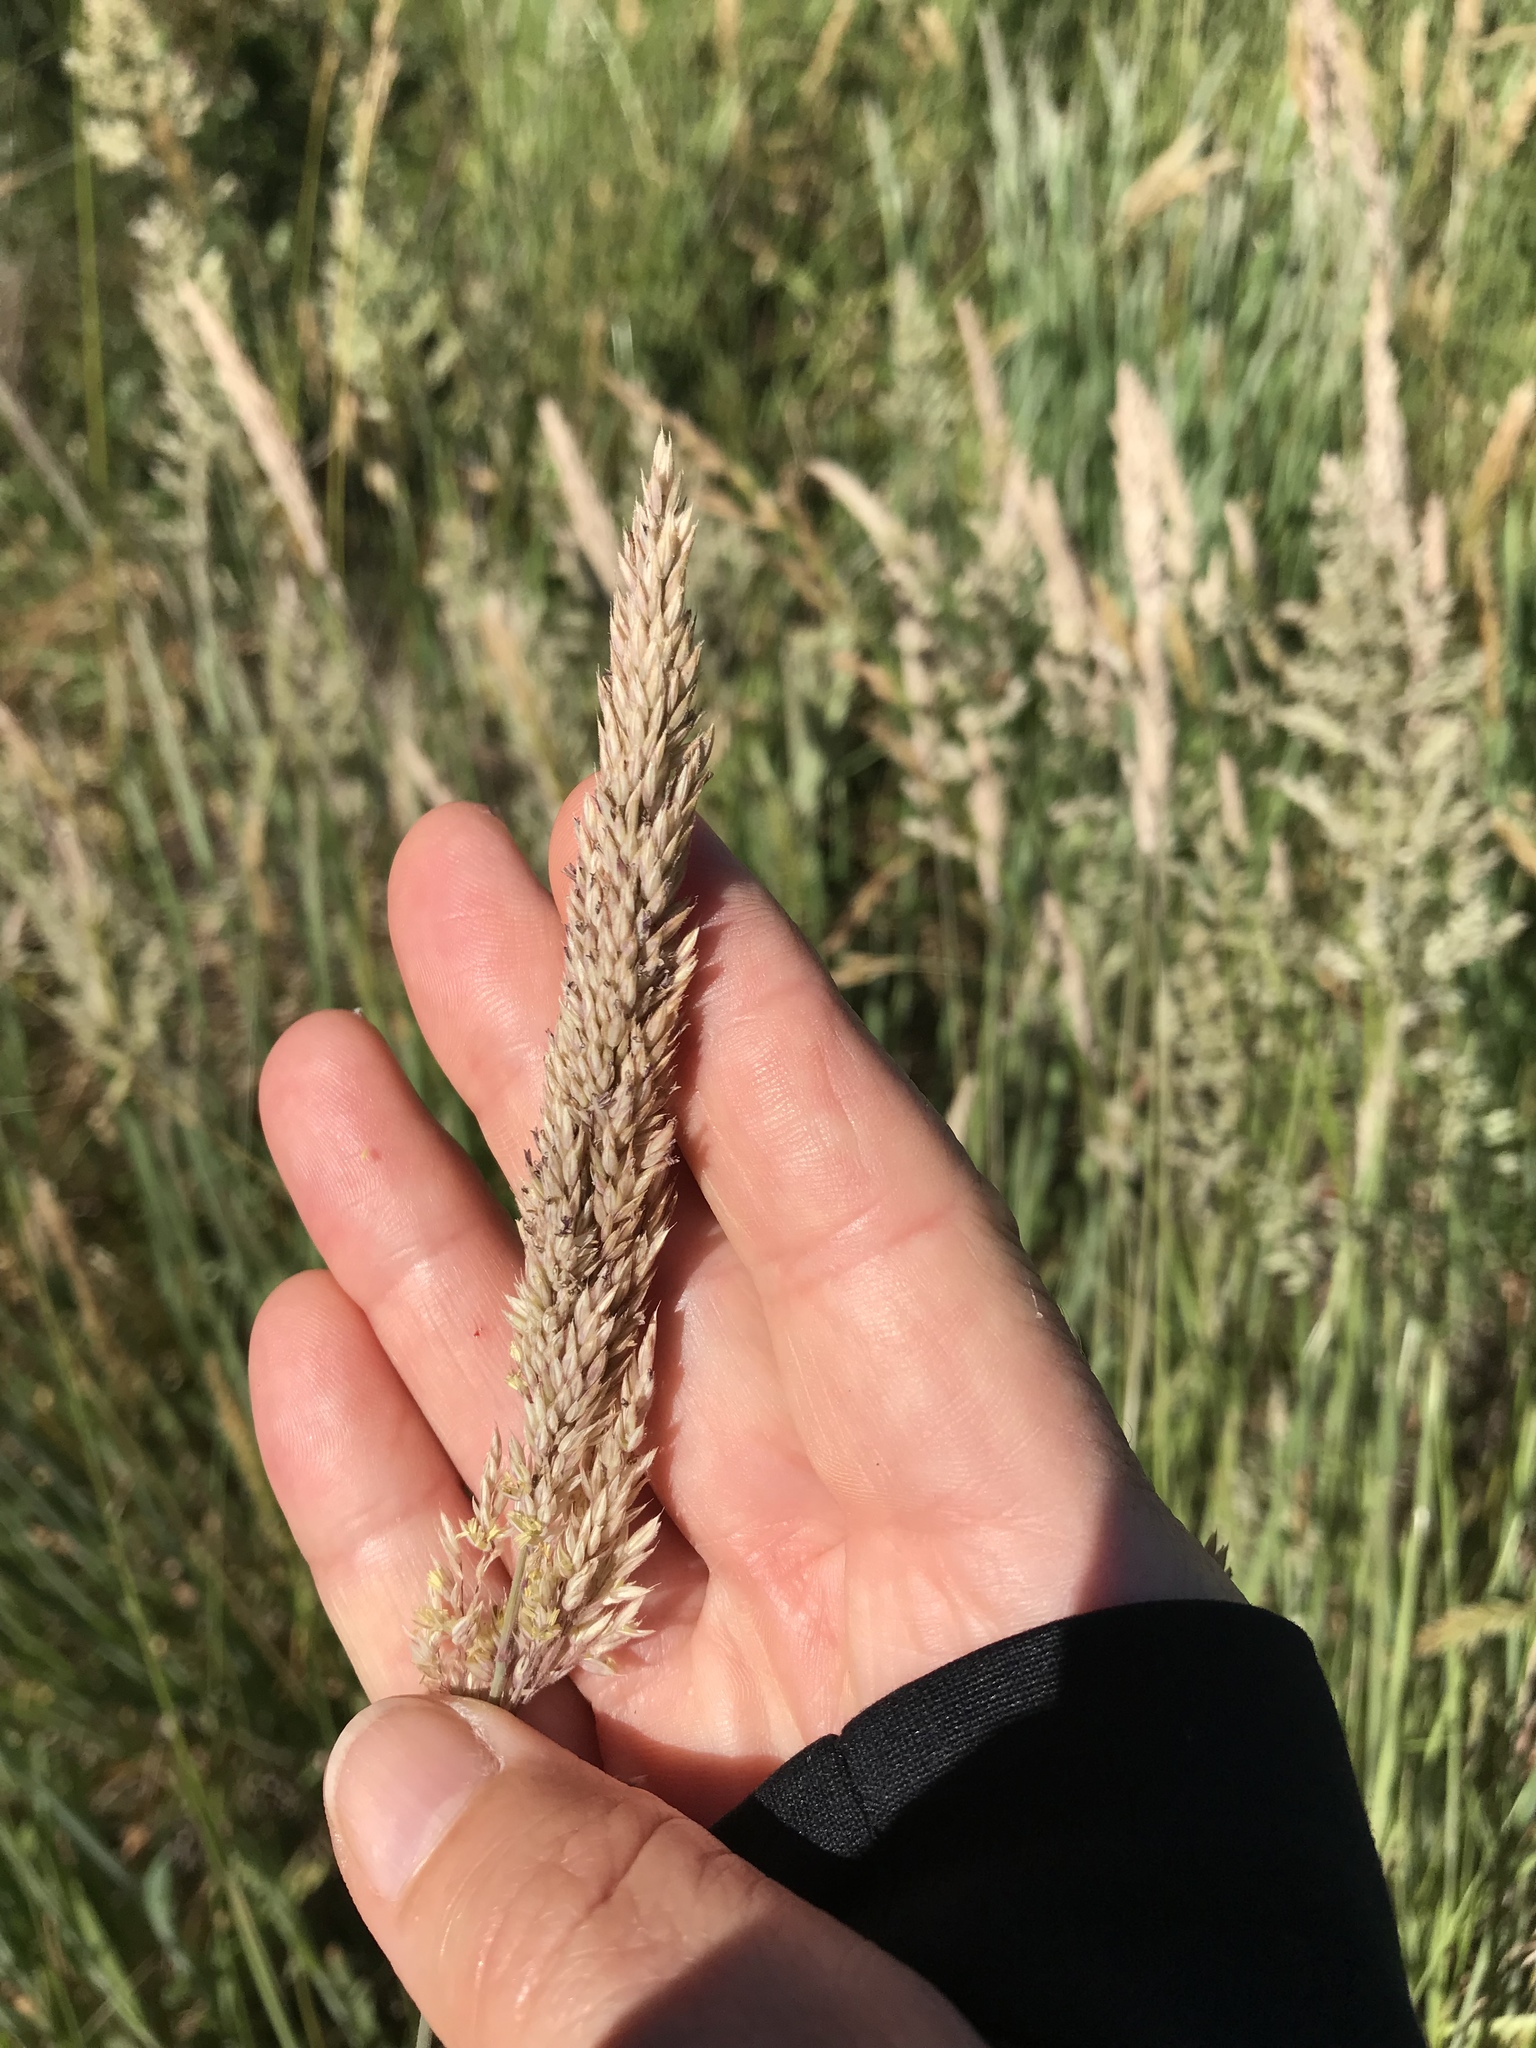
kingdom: Plantae
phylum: Tracheophyta
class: Liliopsida
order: Poales
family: Poaceae
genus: Holcus
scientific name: Holcus lanatus
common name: Yorkshire-fog
